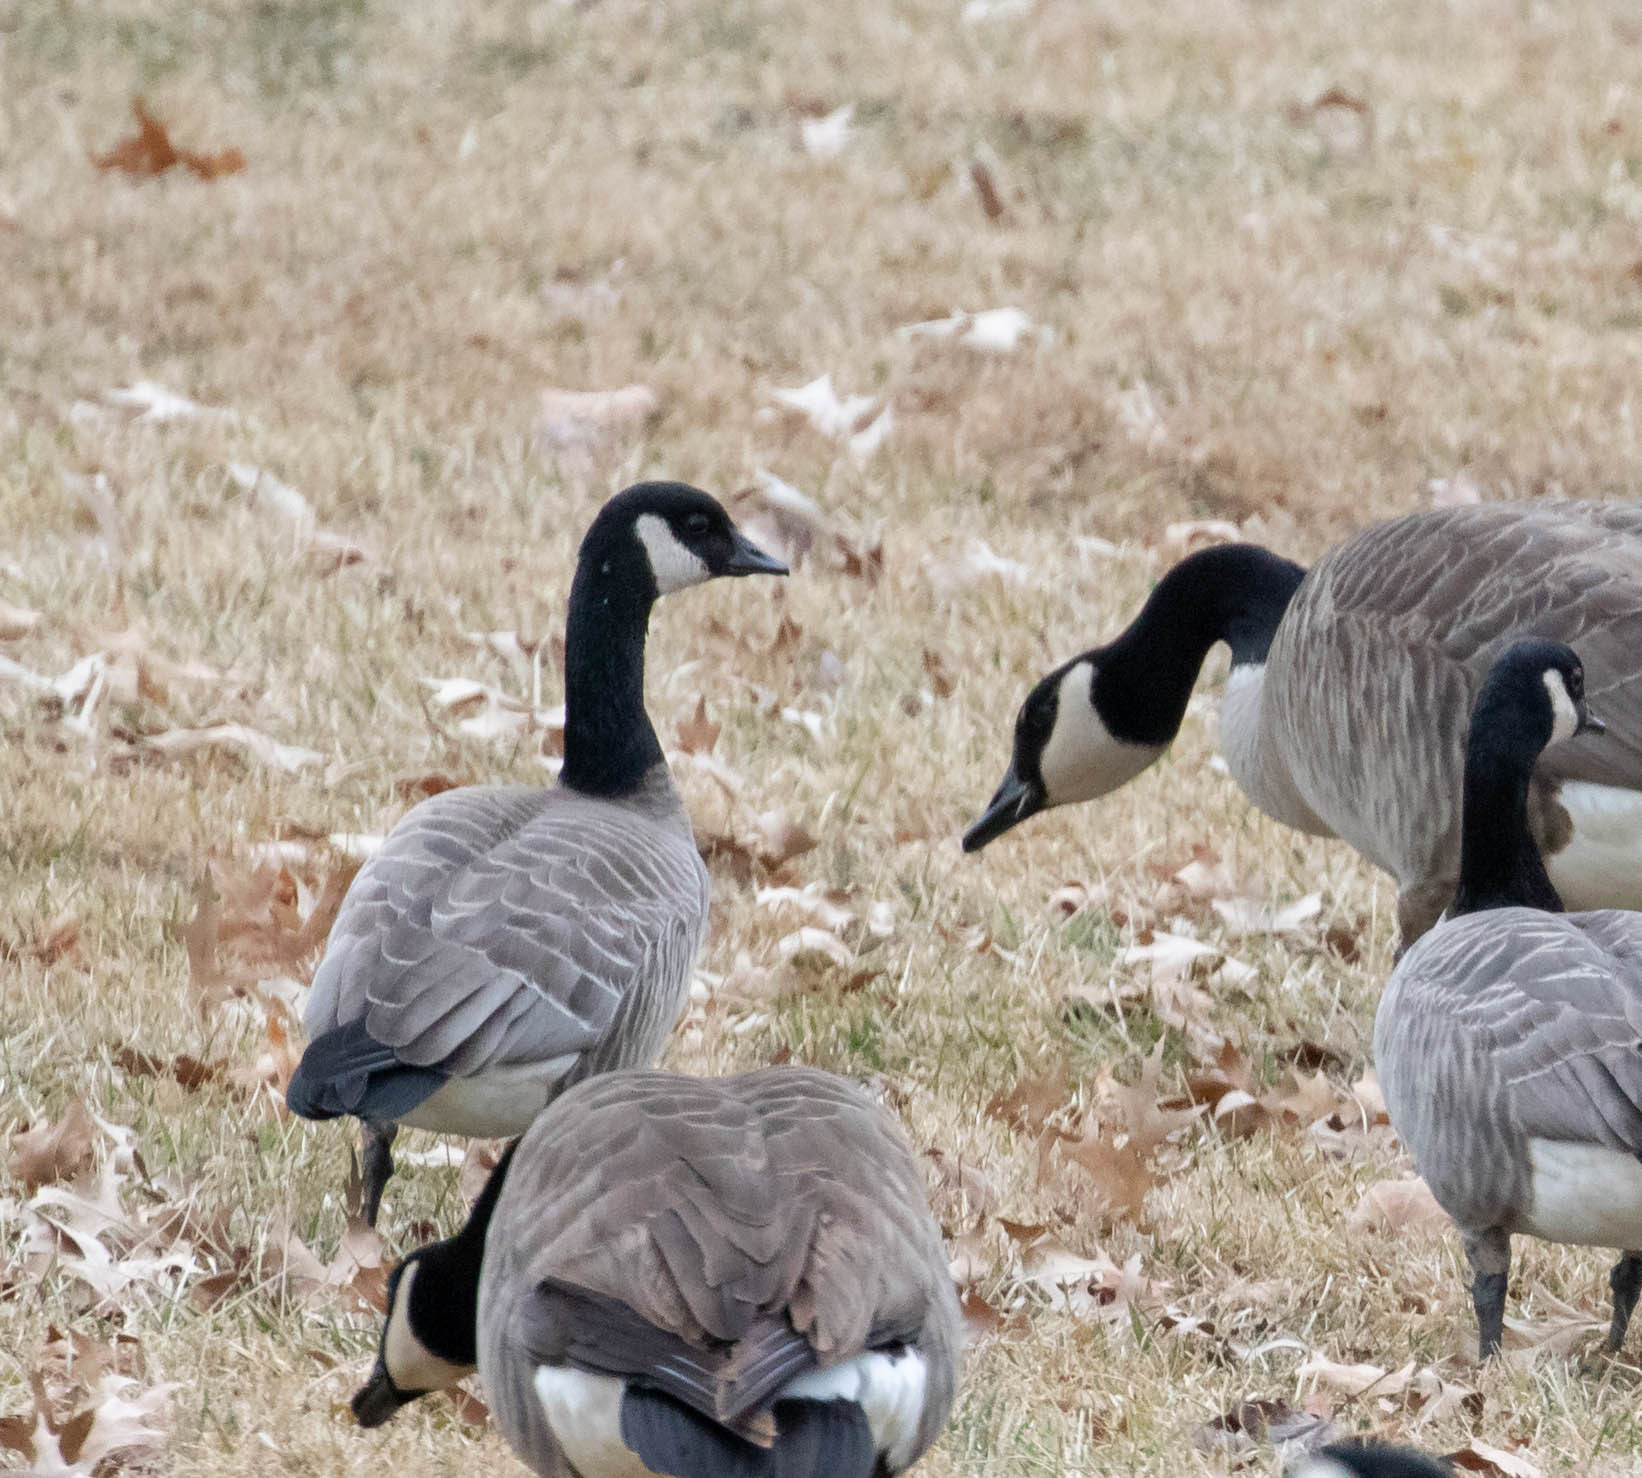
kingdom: Animalia
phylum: Chordata
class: Aves
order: Anseriformes
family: Anatidae
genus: Branta
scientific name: Branta hutchinsii
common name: Cackling goose
